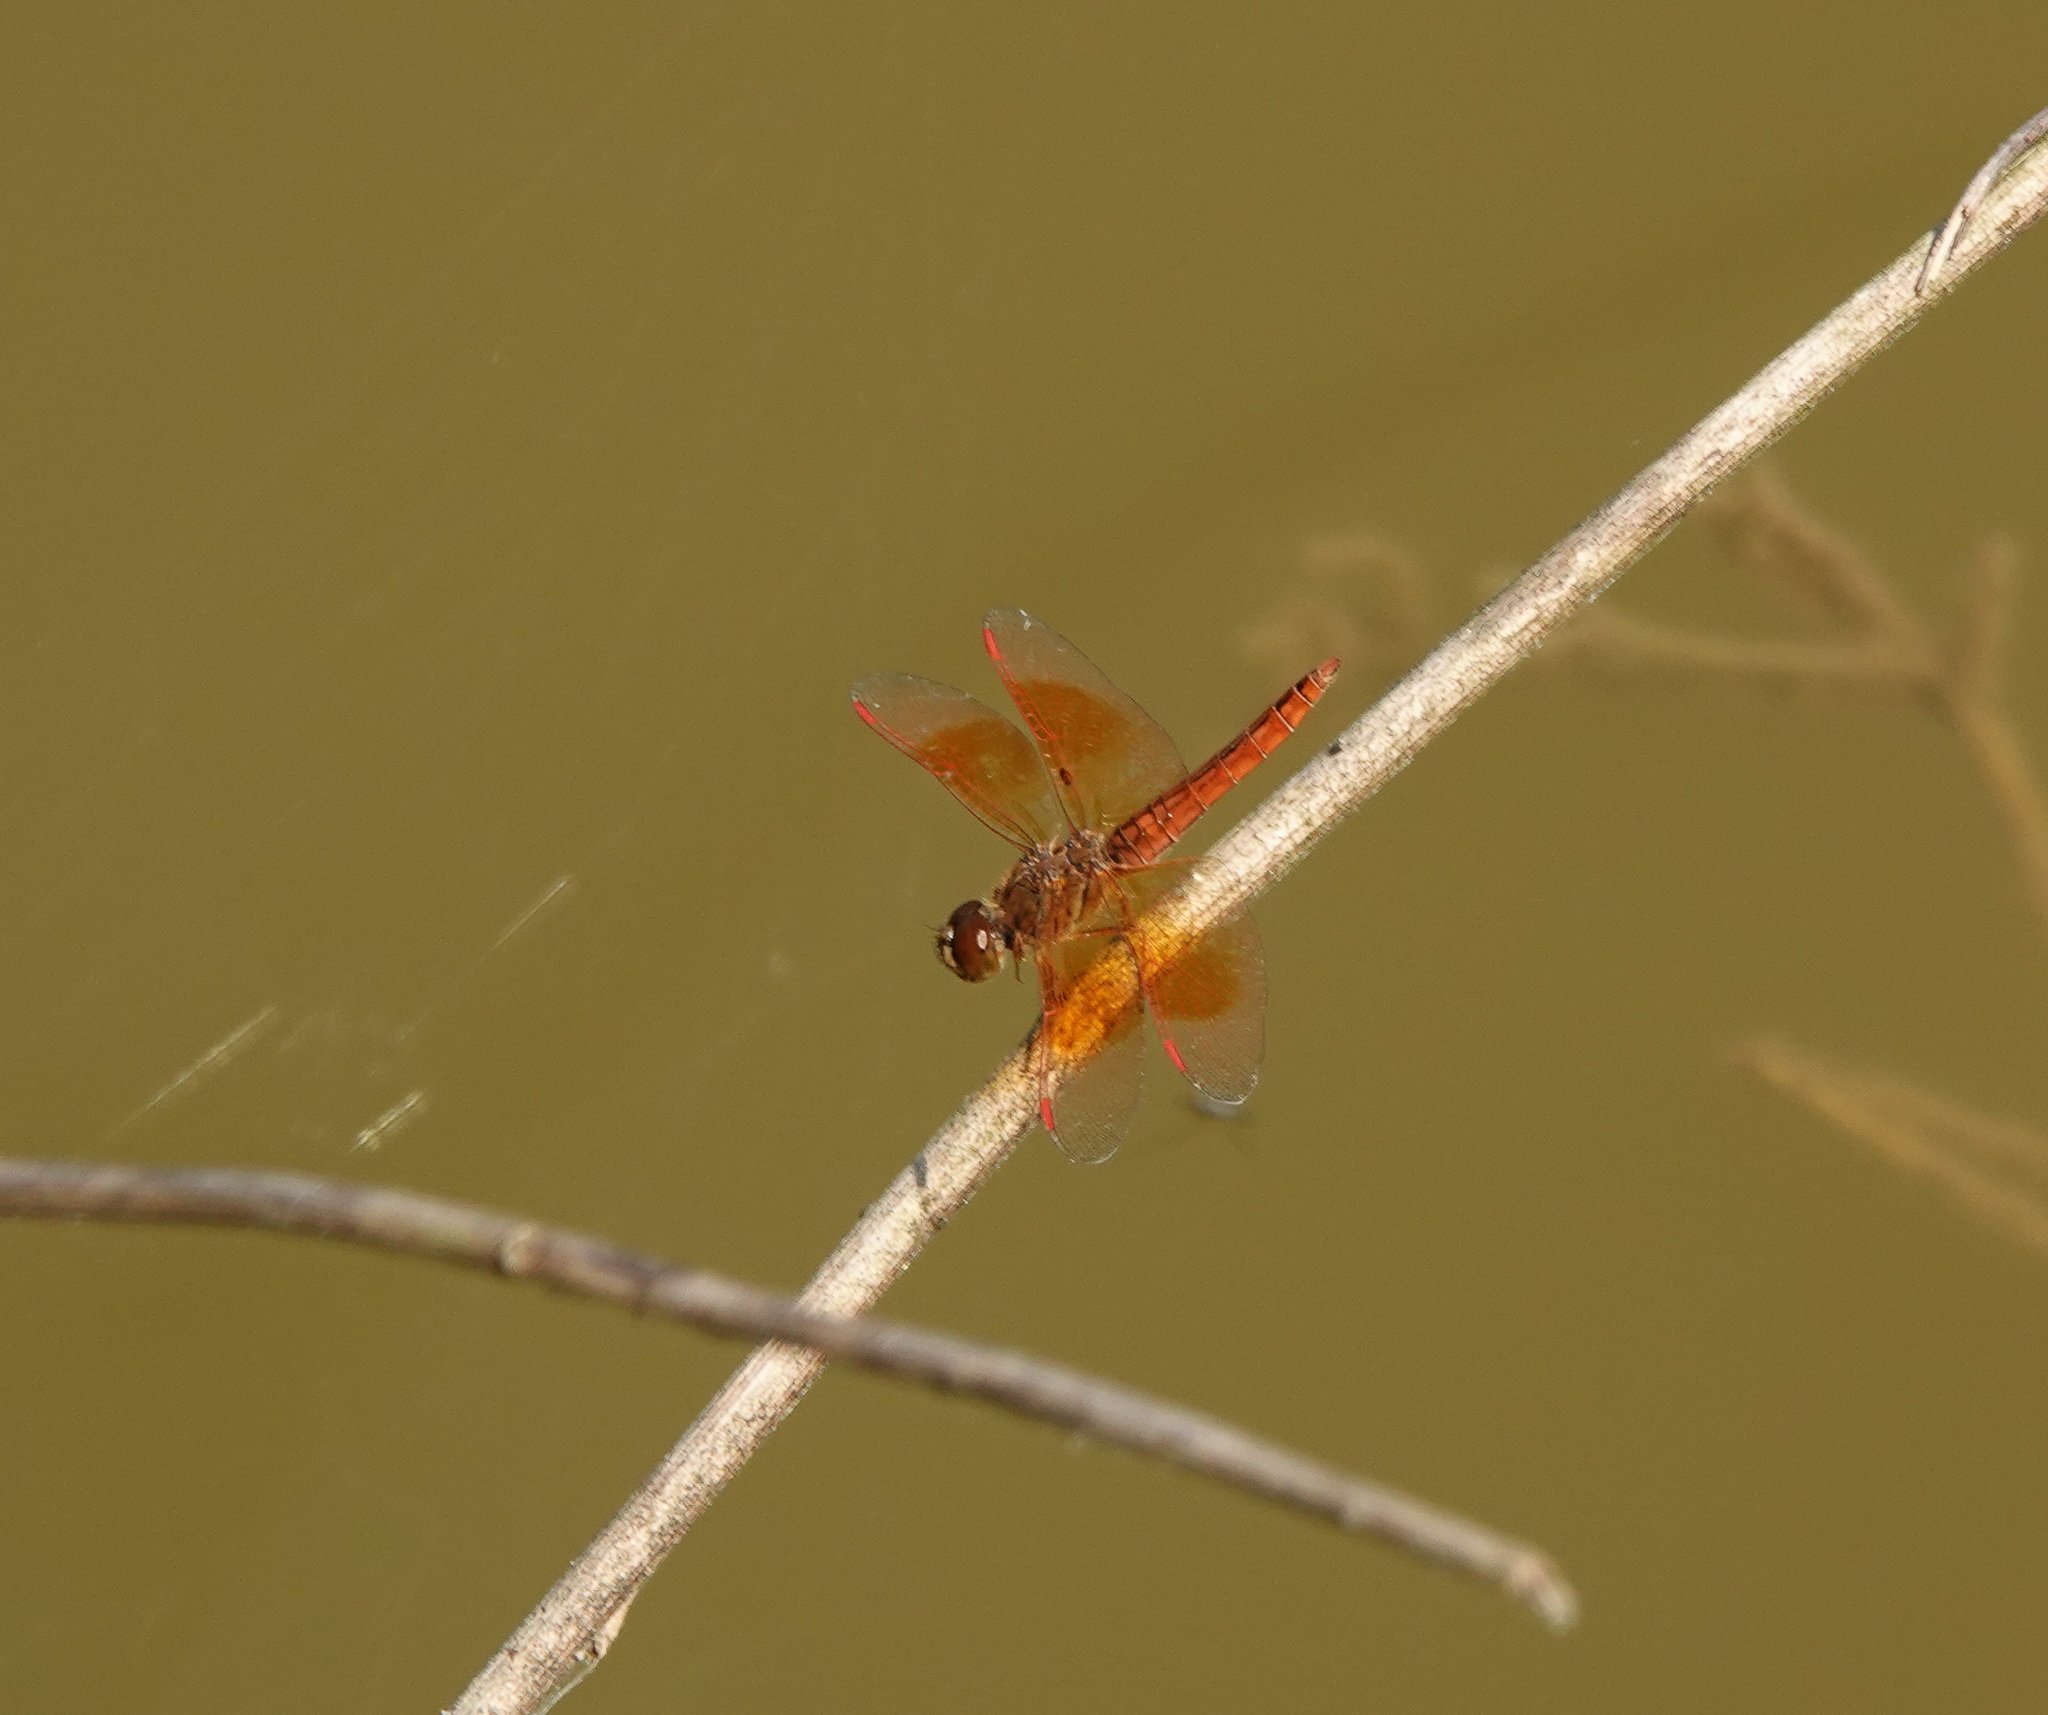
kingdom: Animalia
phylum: Arthropoda
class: Insecta
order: Odonata
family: Libellulidae
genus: Brachythemis
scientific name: Brachythemis contaminata
